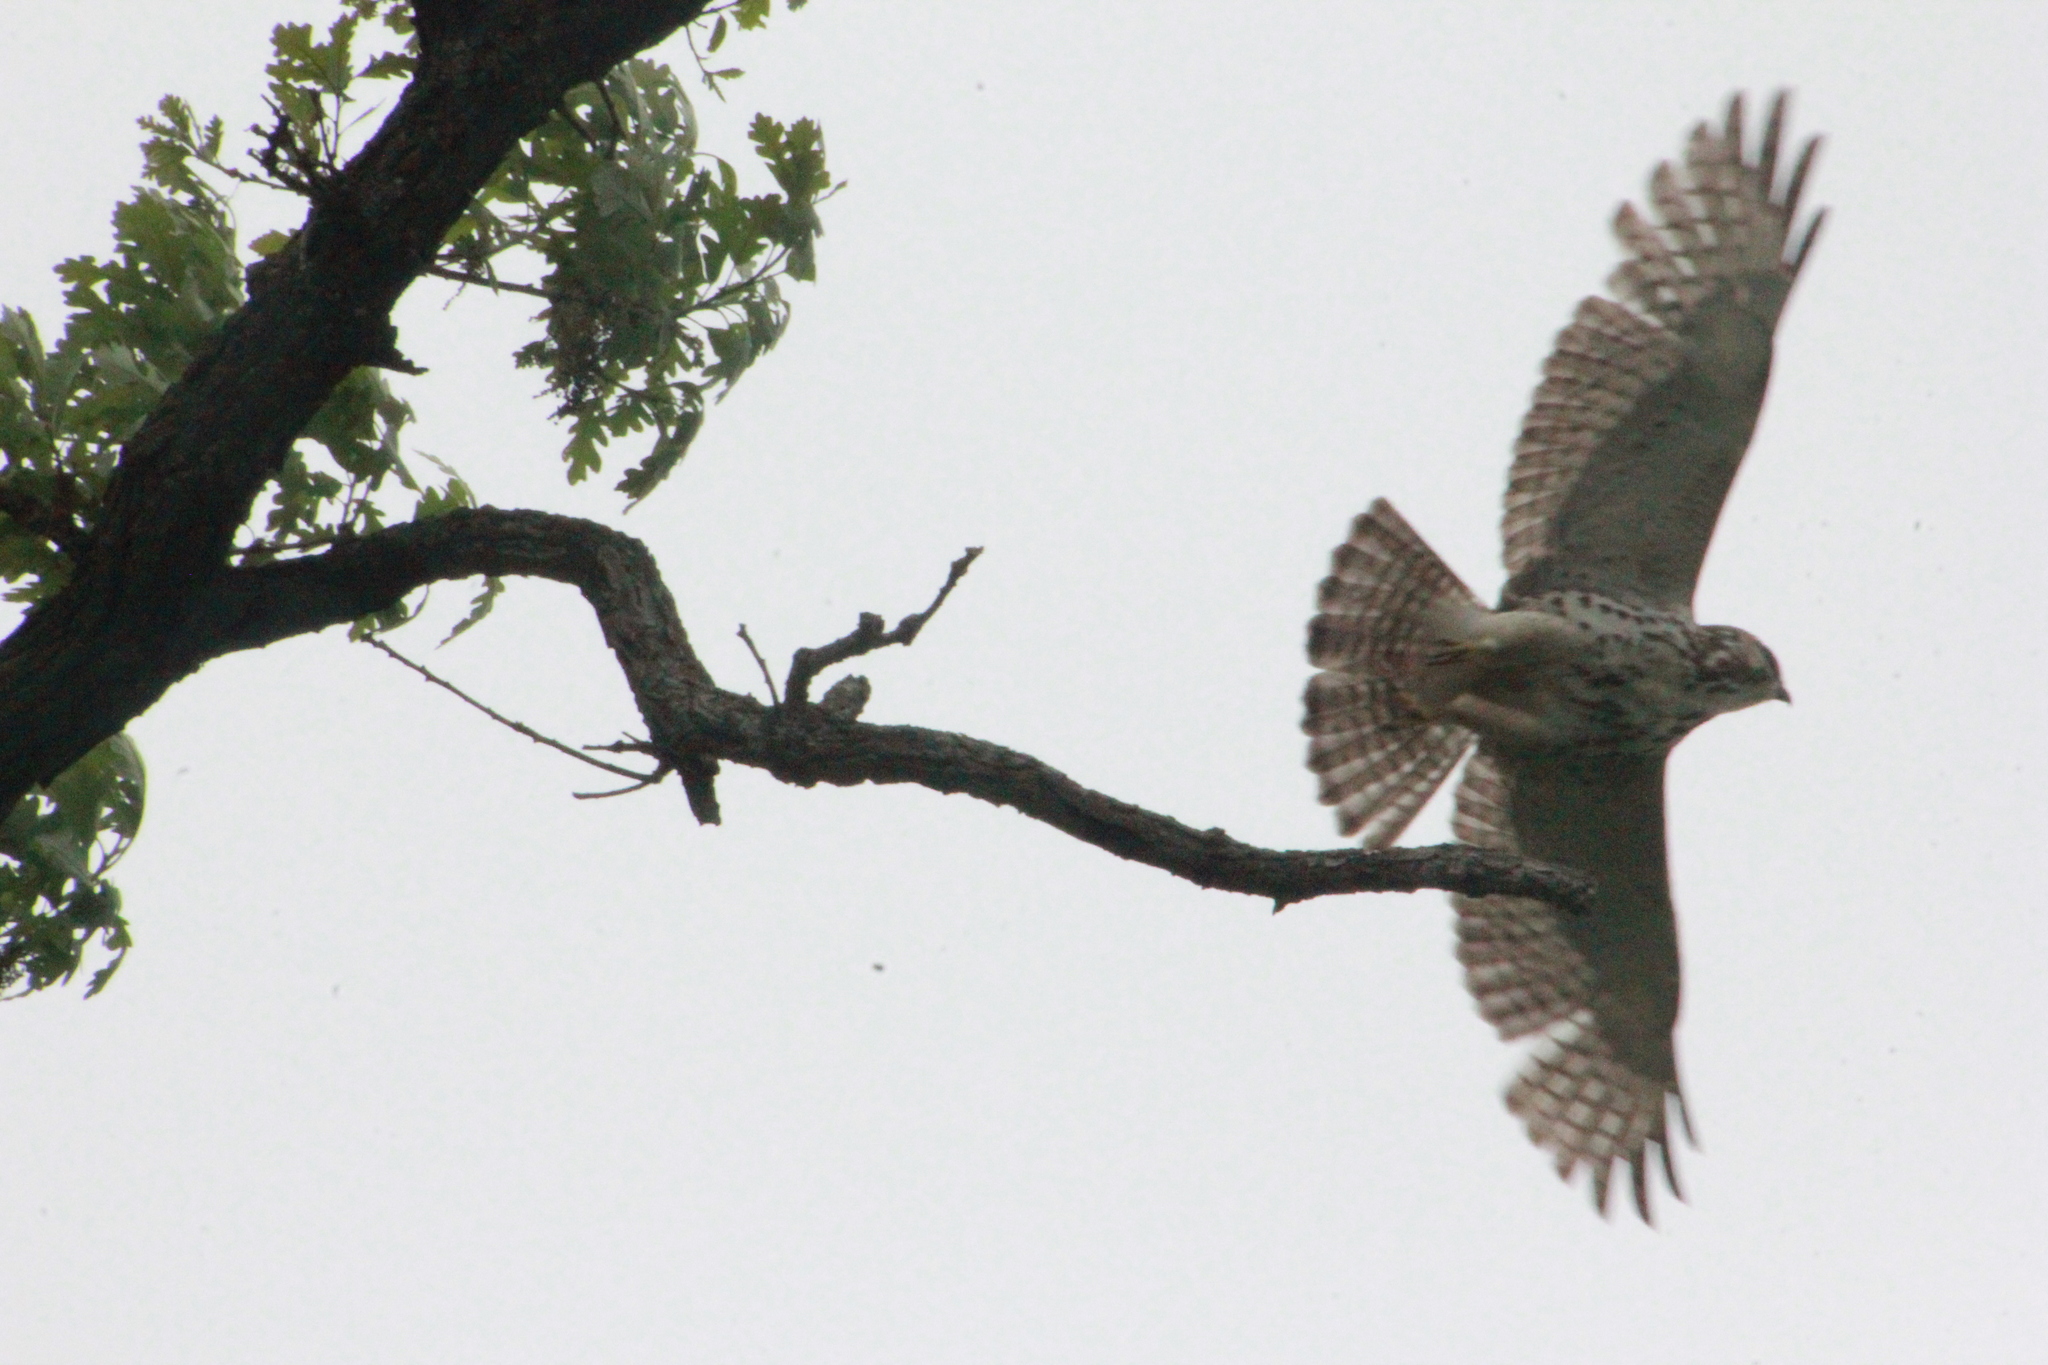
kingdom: Animalia
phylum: Chordata
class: Aves
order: Accipitriformes
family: Accipitridae
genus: Buteo
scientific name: Buteo platypterus
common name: Broad-winged hawk
